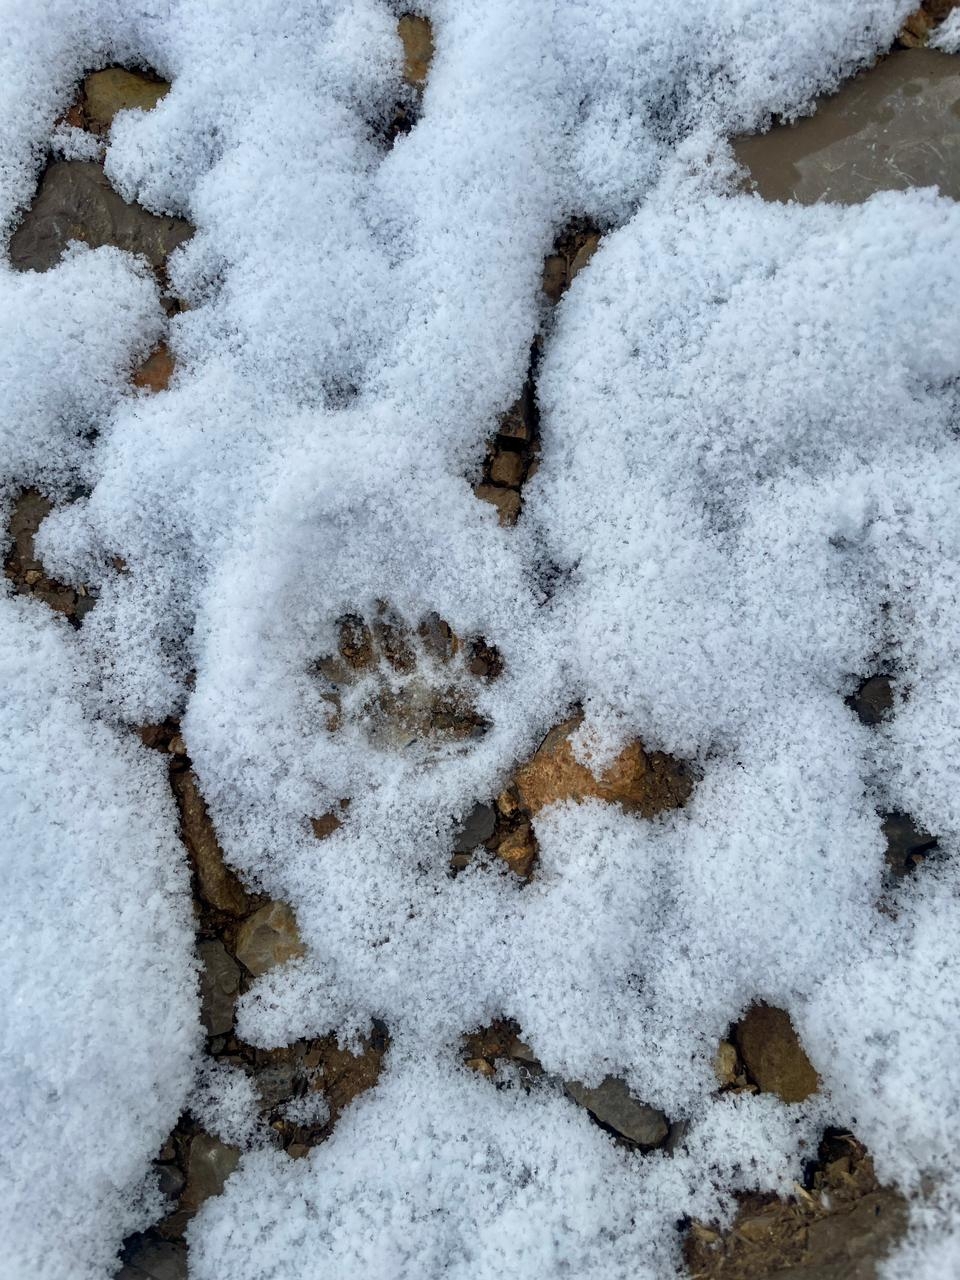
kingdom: Animalia
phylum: Chordata
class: Mammalia
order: Carnivora
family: Felidae
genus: Felis
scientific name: Felis catus
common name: Domestic cat
